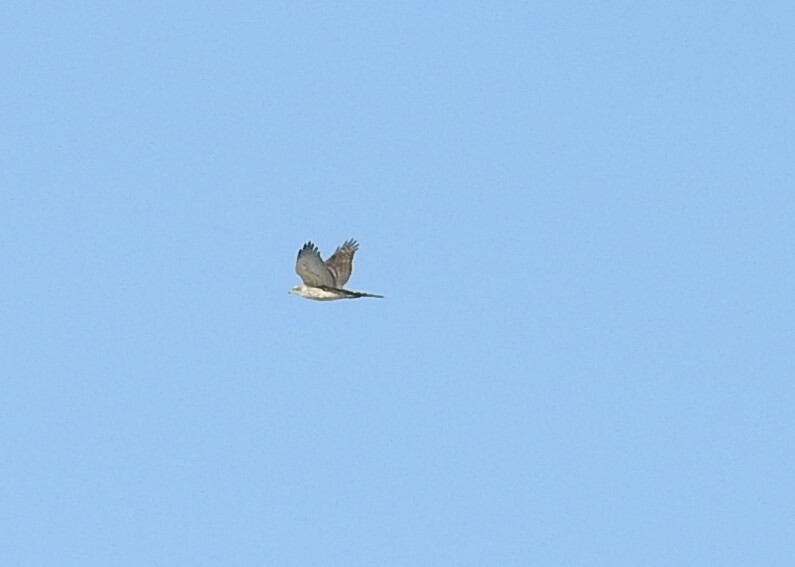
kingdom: Animalia
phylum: Chordata
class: Aves
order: Accipitriformes
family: Accipitridae
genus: Accipiter
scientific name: Accipiter gentilis
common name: Northern goshawk
